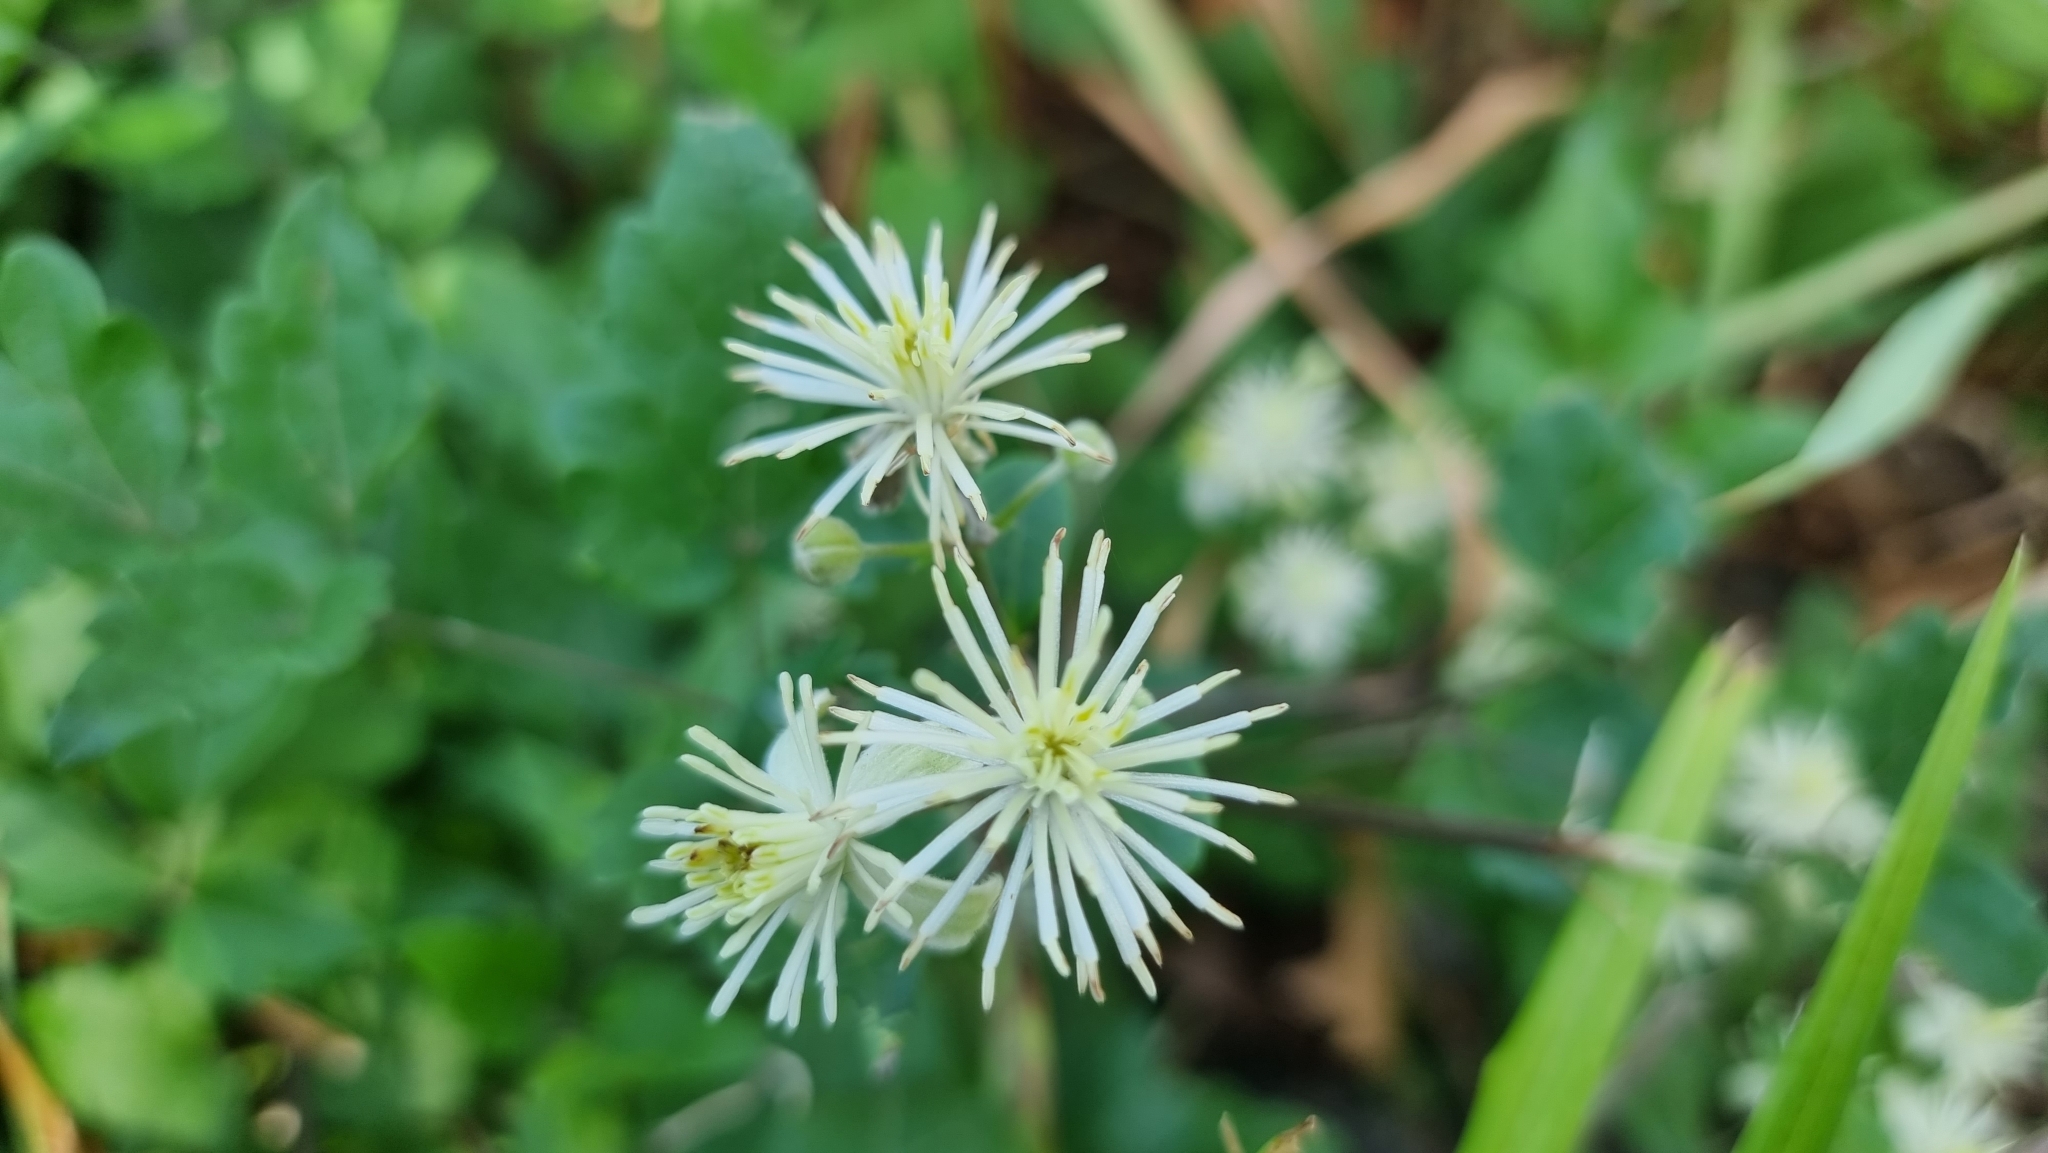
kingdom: Plantae
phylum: Tracheophyta
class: Magnoliopsida
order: Ranunculales
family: Ranunculaceae
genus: Clematis
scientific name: Clematis vitalba
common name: Evergreen clematis
